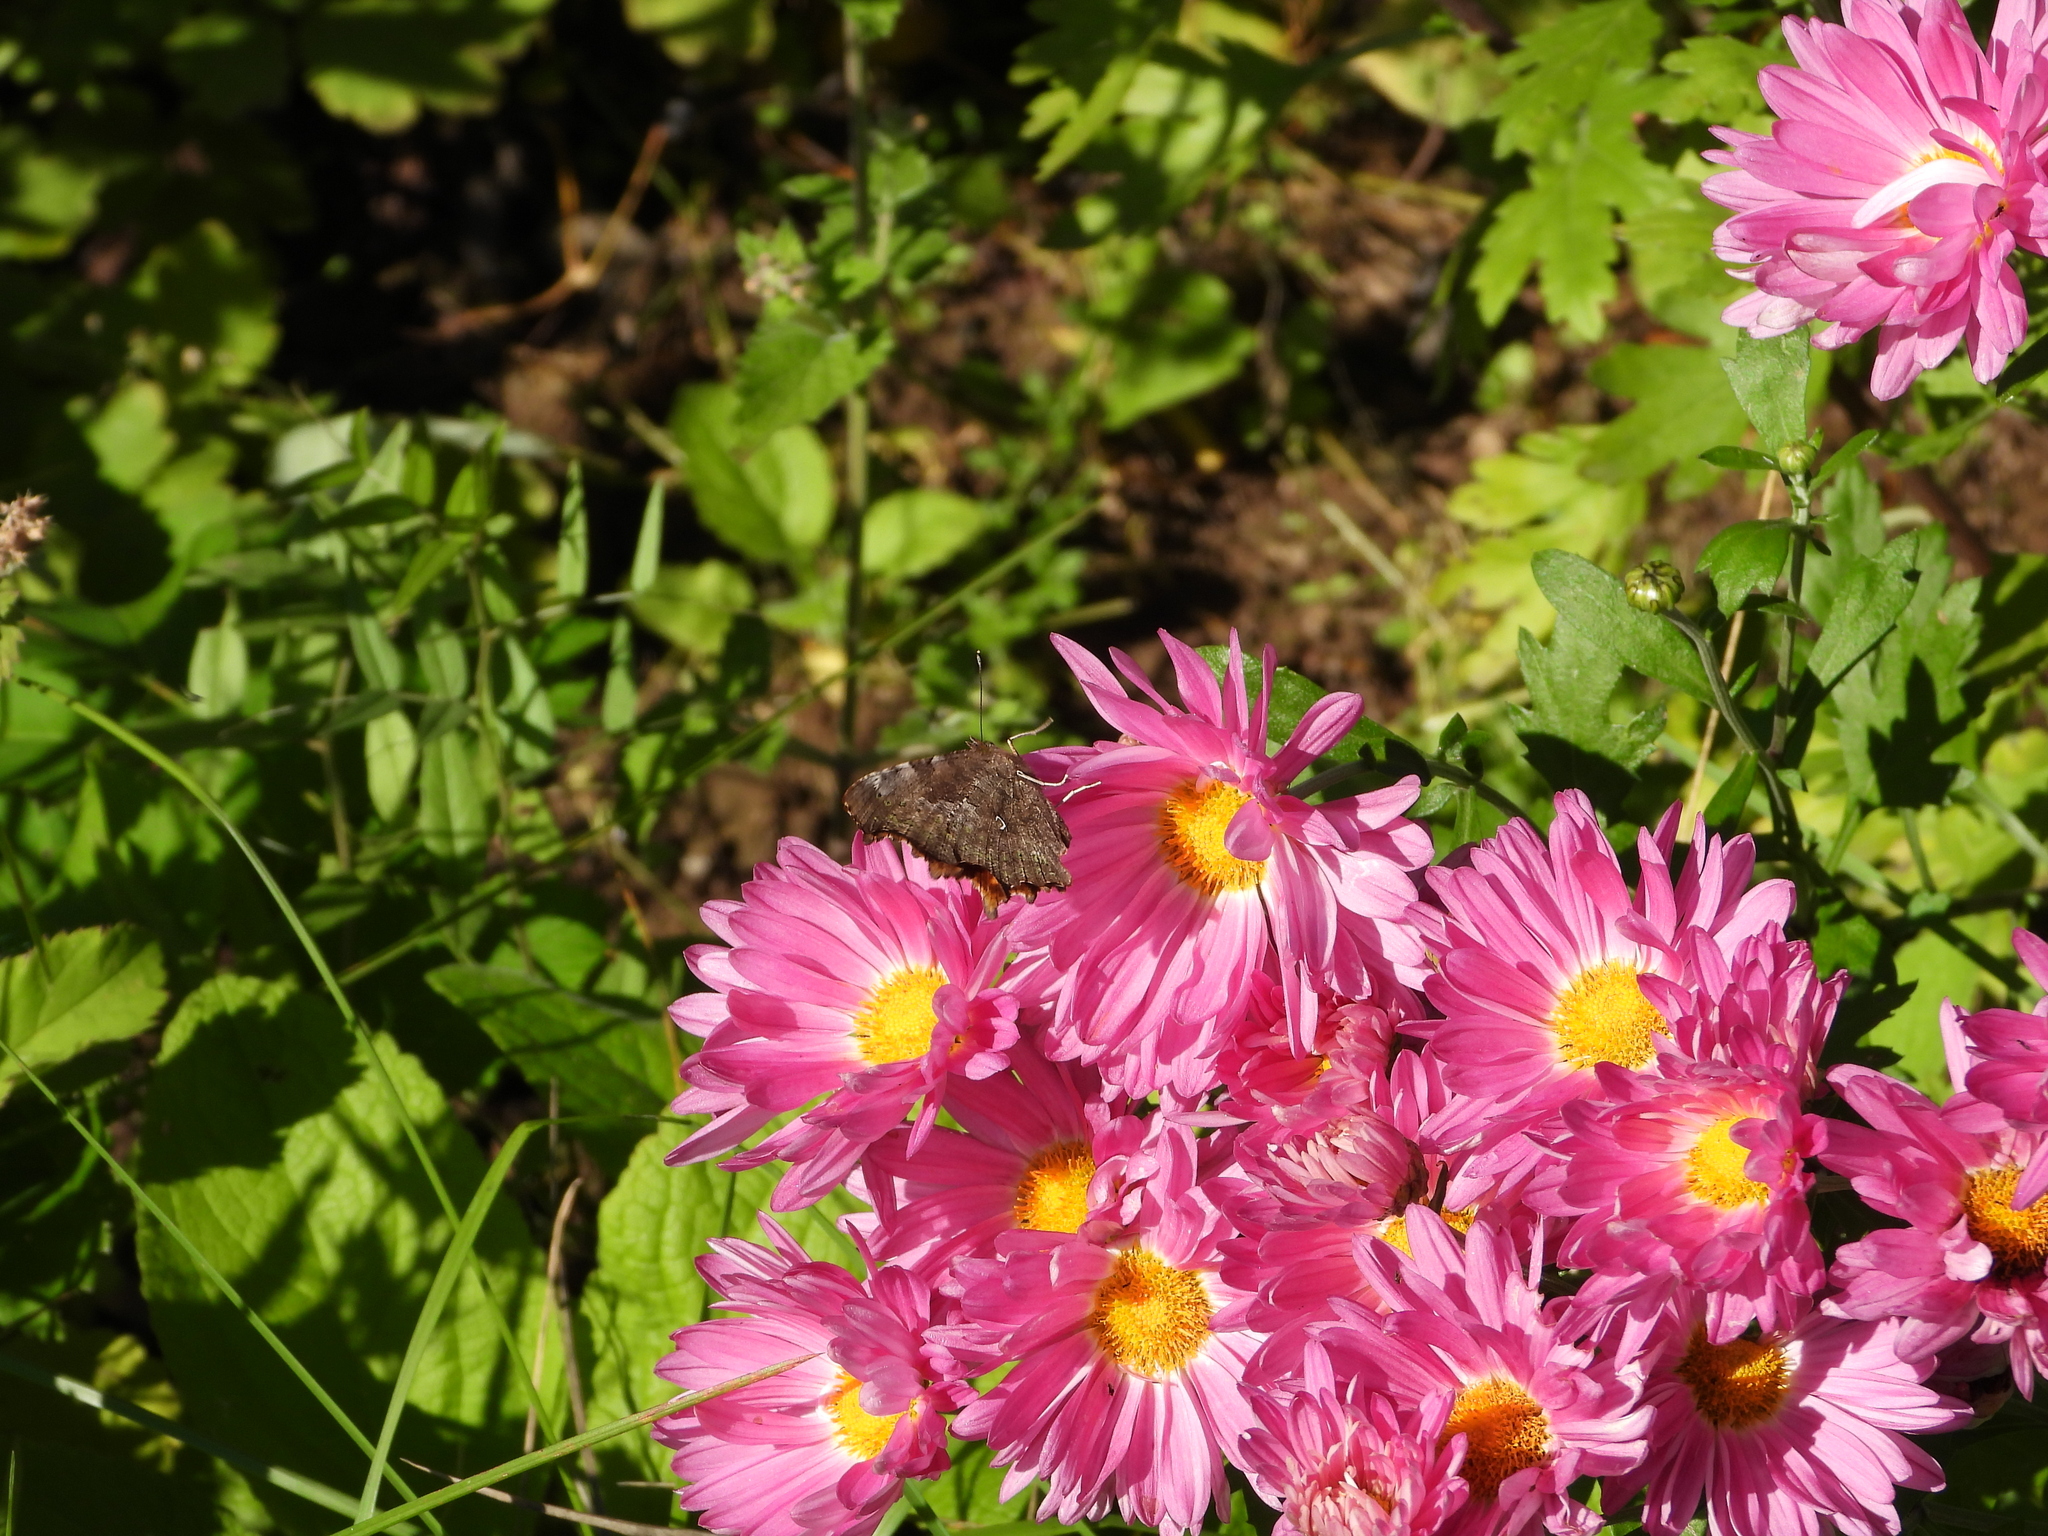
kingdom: Animalia
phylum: Arthropoda
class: Insecta
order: Lepidoptera
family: Nymphalidae
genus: Polygonia
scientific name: Polygonia c-album
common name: Comma
